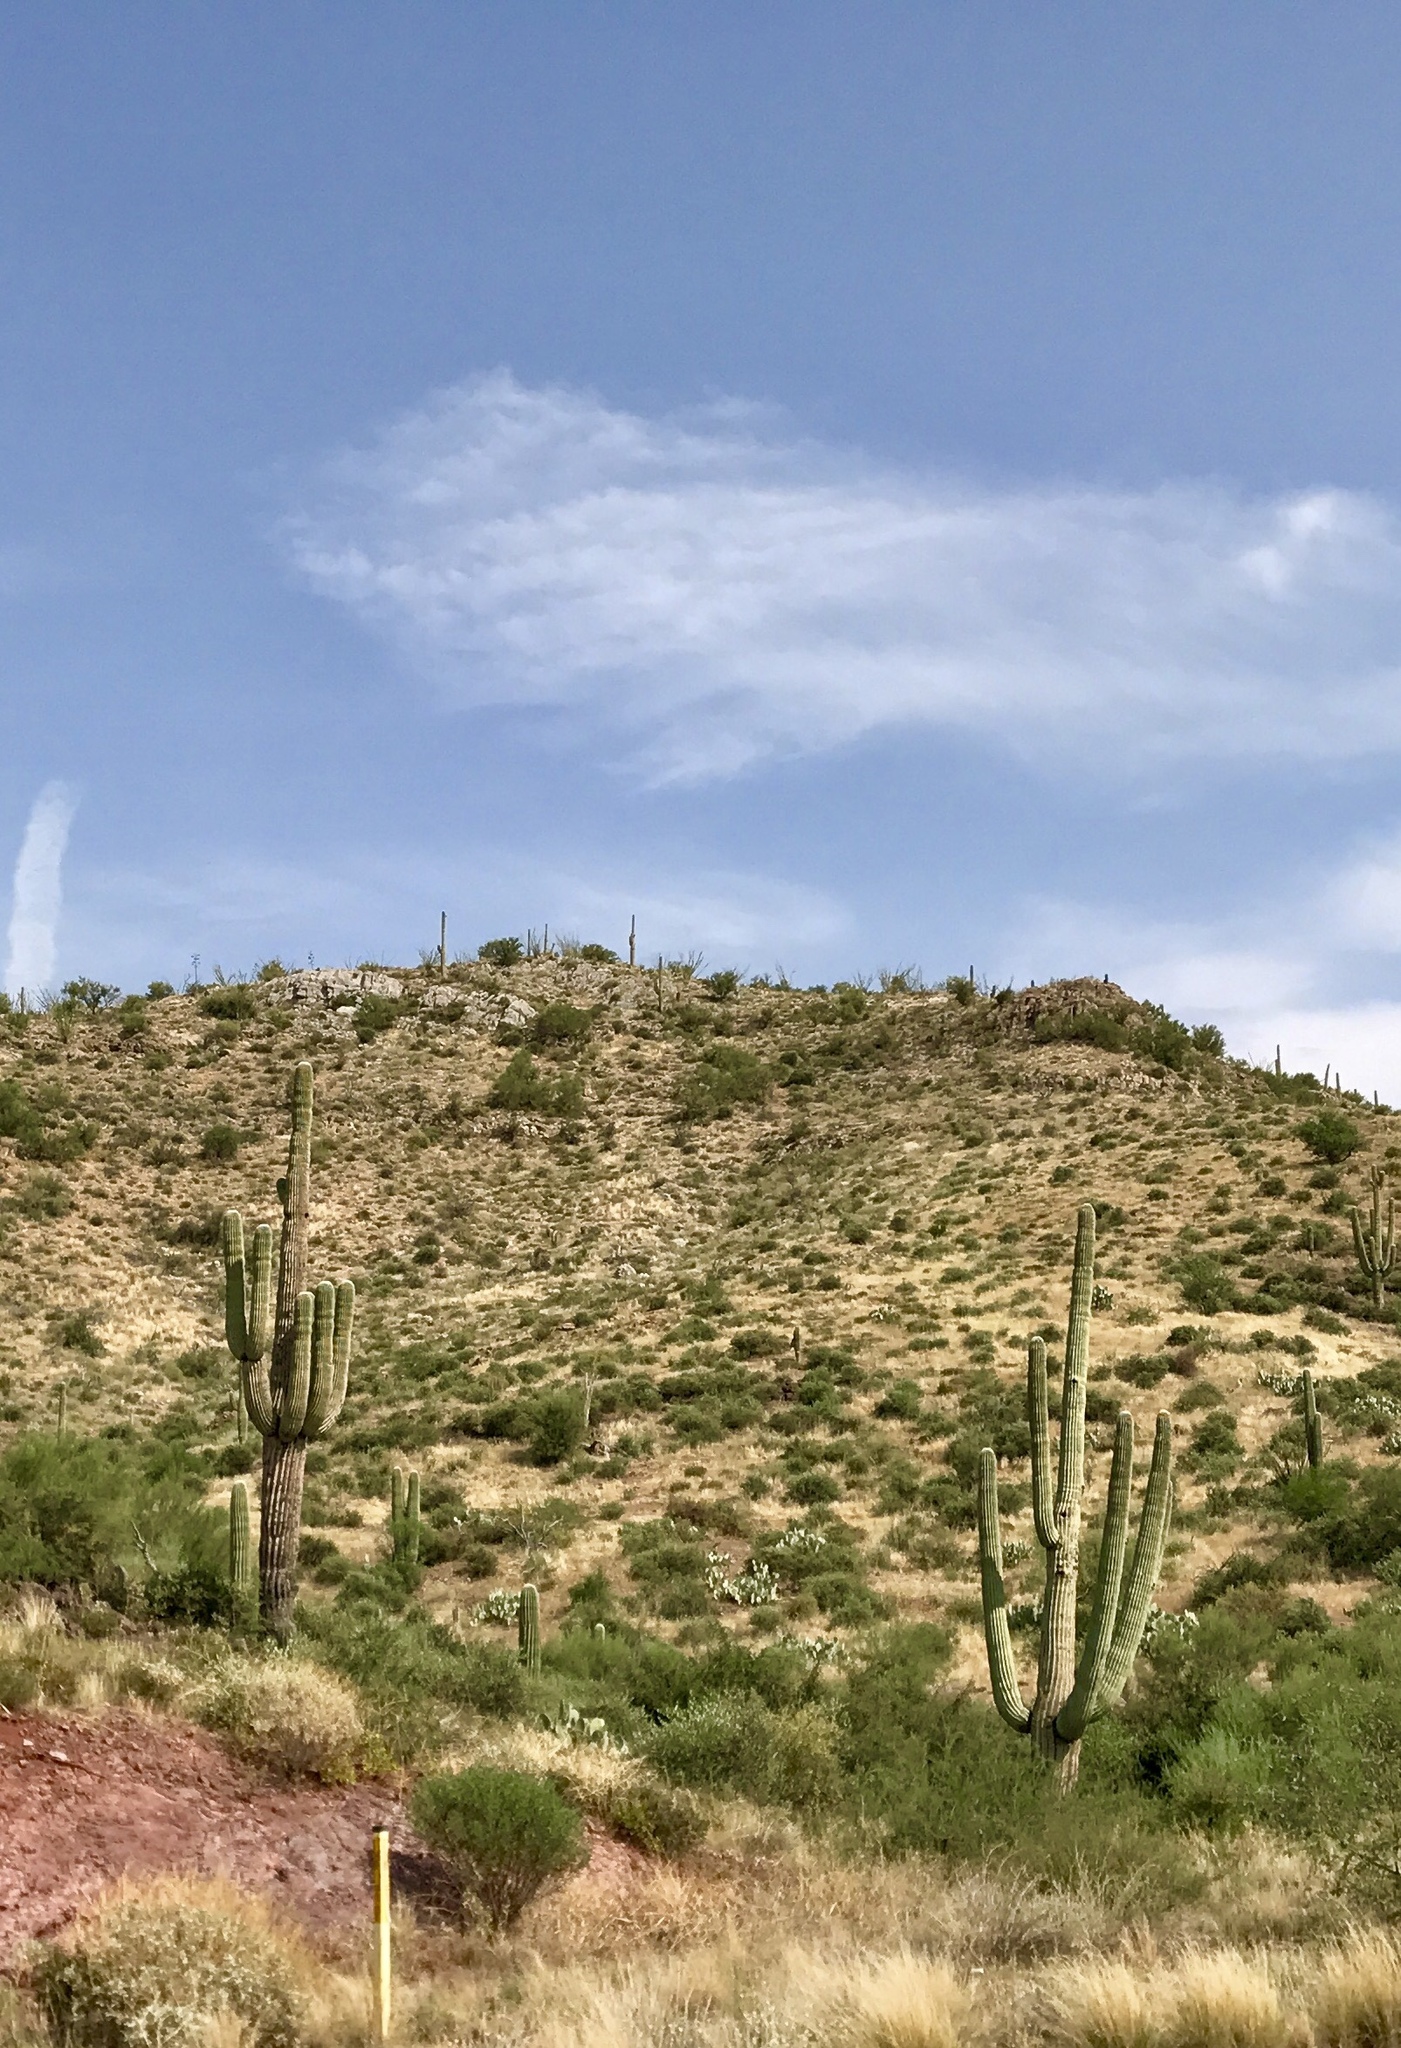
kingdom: Plantae
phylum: Tracheophyta
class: Magnoliopsida
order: Caryophyllales
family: Cactaceae
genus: Carnegiea
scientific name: Carnegiea gigantea
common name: Saguaro
